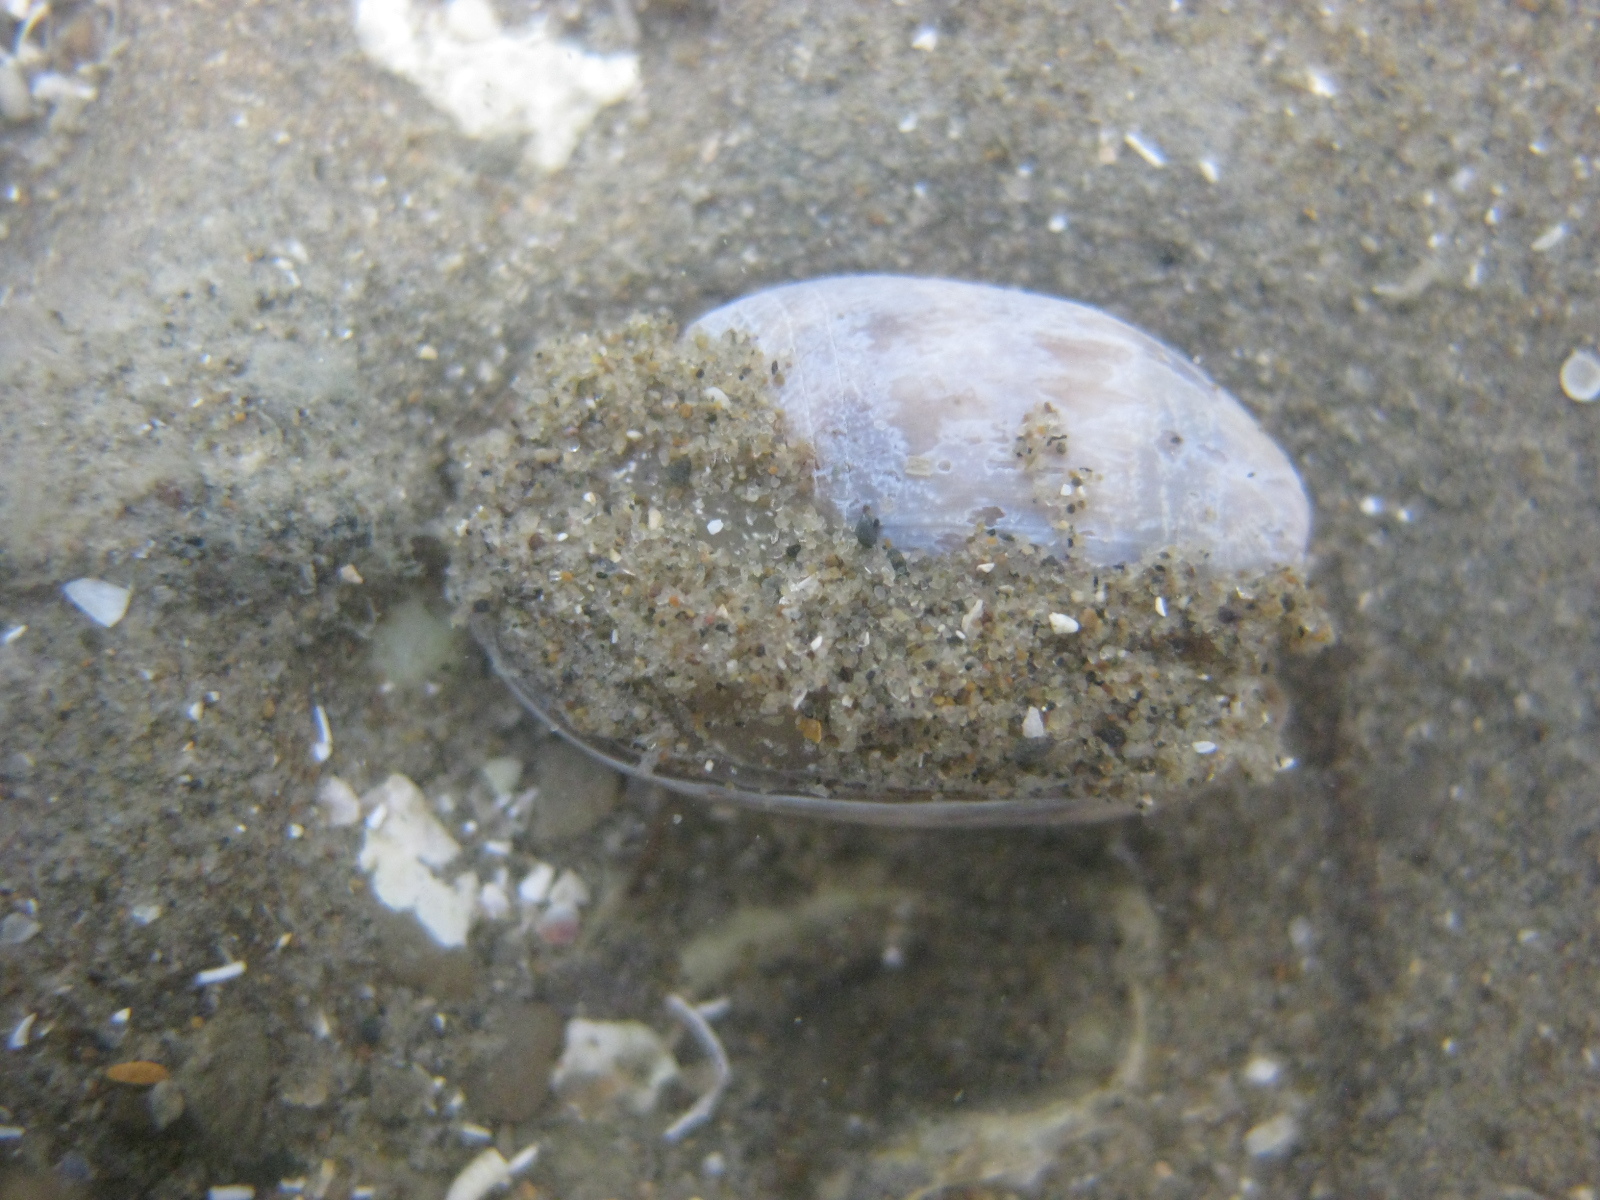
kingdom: Animalia
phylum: Mollusca
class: Gastropoda
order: Cephalaspidea
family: Bullidae
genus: Bulla
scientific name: Bulla quoyii
